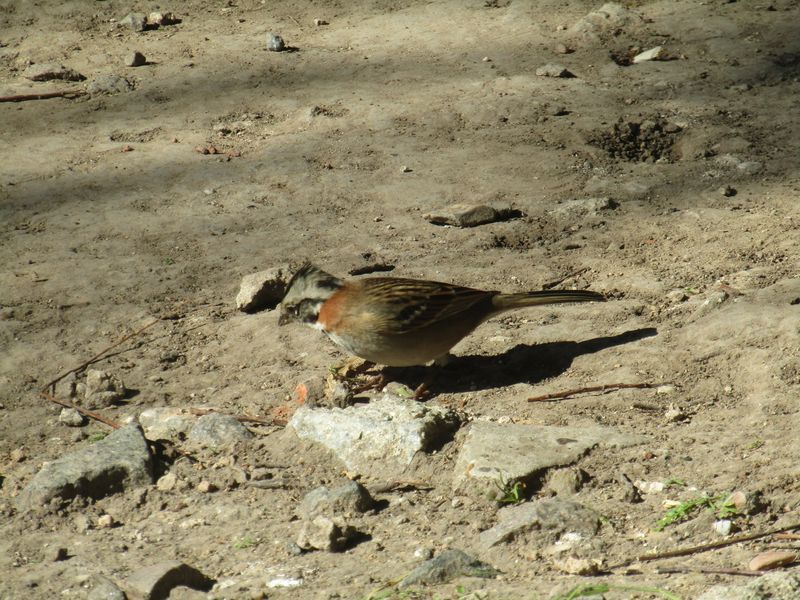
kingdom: Animalia
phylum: Chordata
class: Aves
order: Passeriformes
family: Passerellidae
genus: Zonotrichia
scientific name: Zonotrichia capensis
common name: Rufous-collared sparrow
